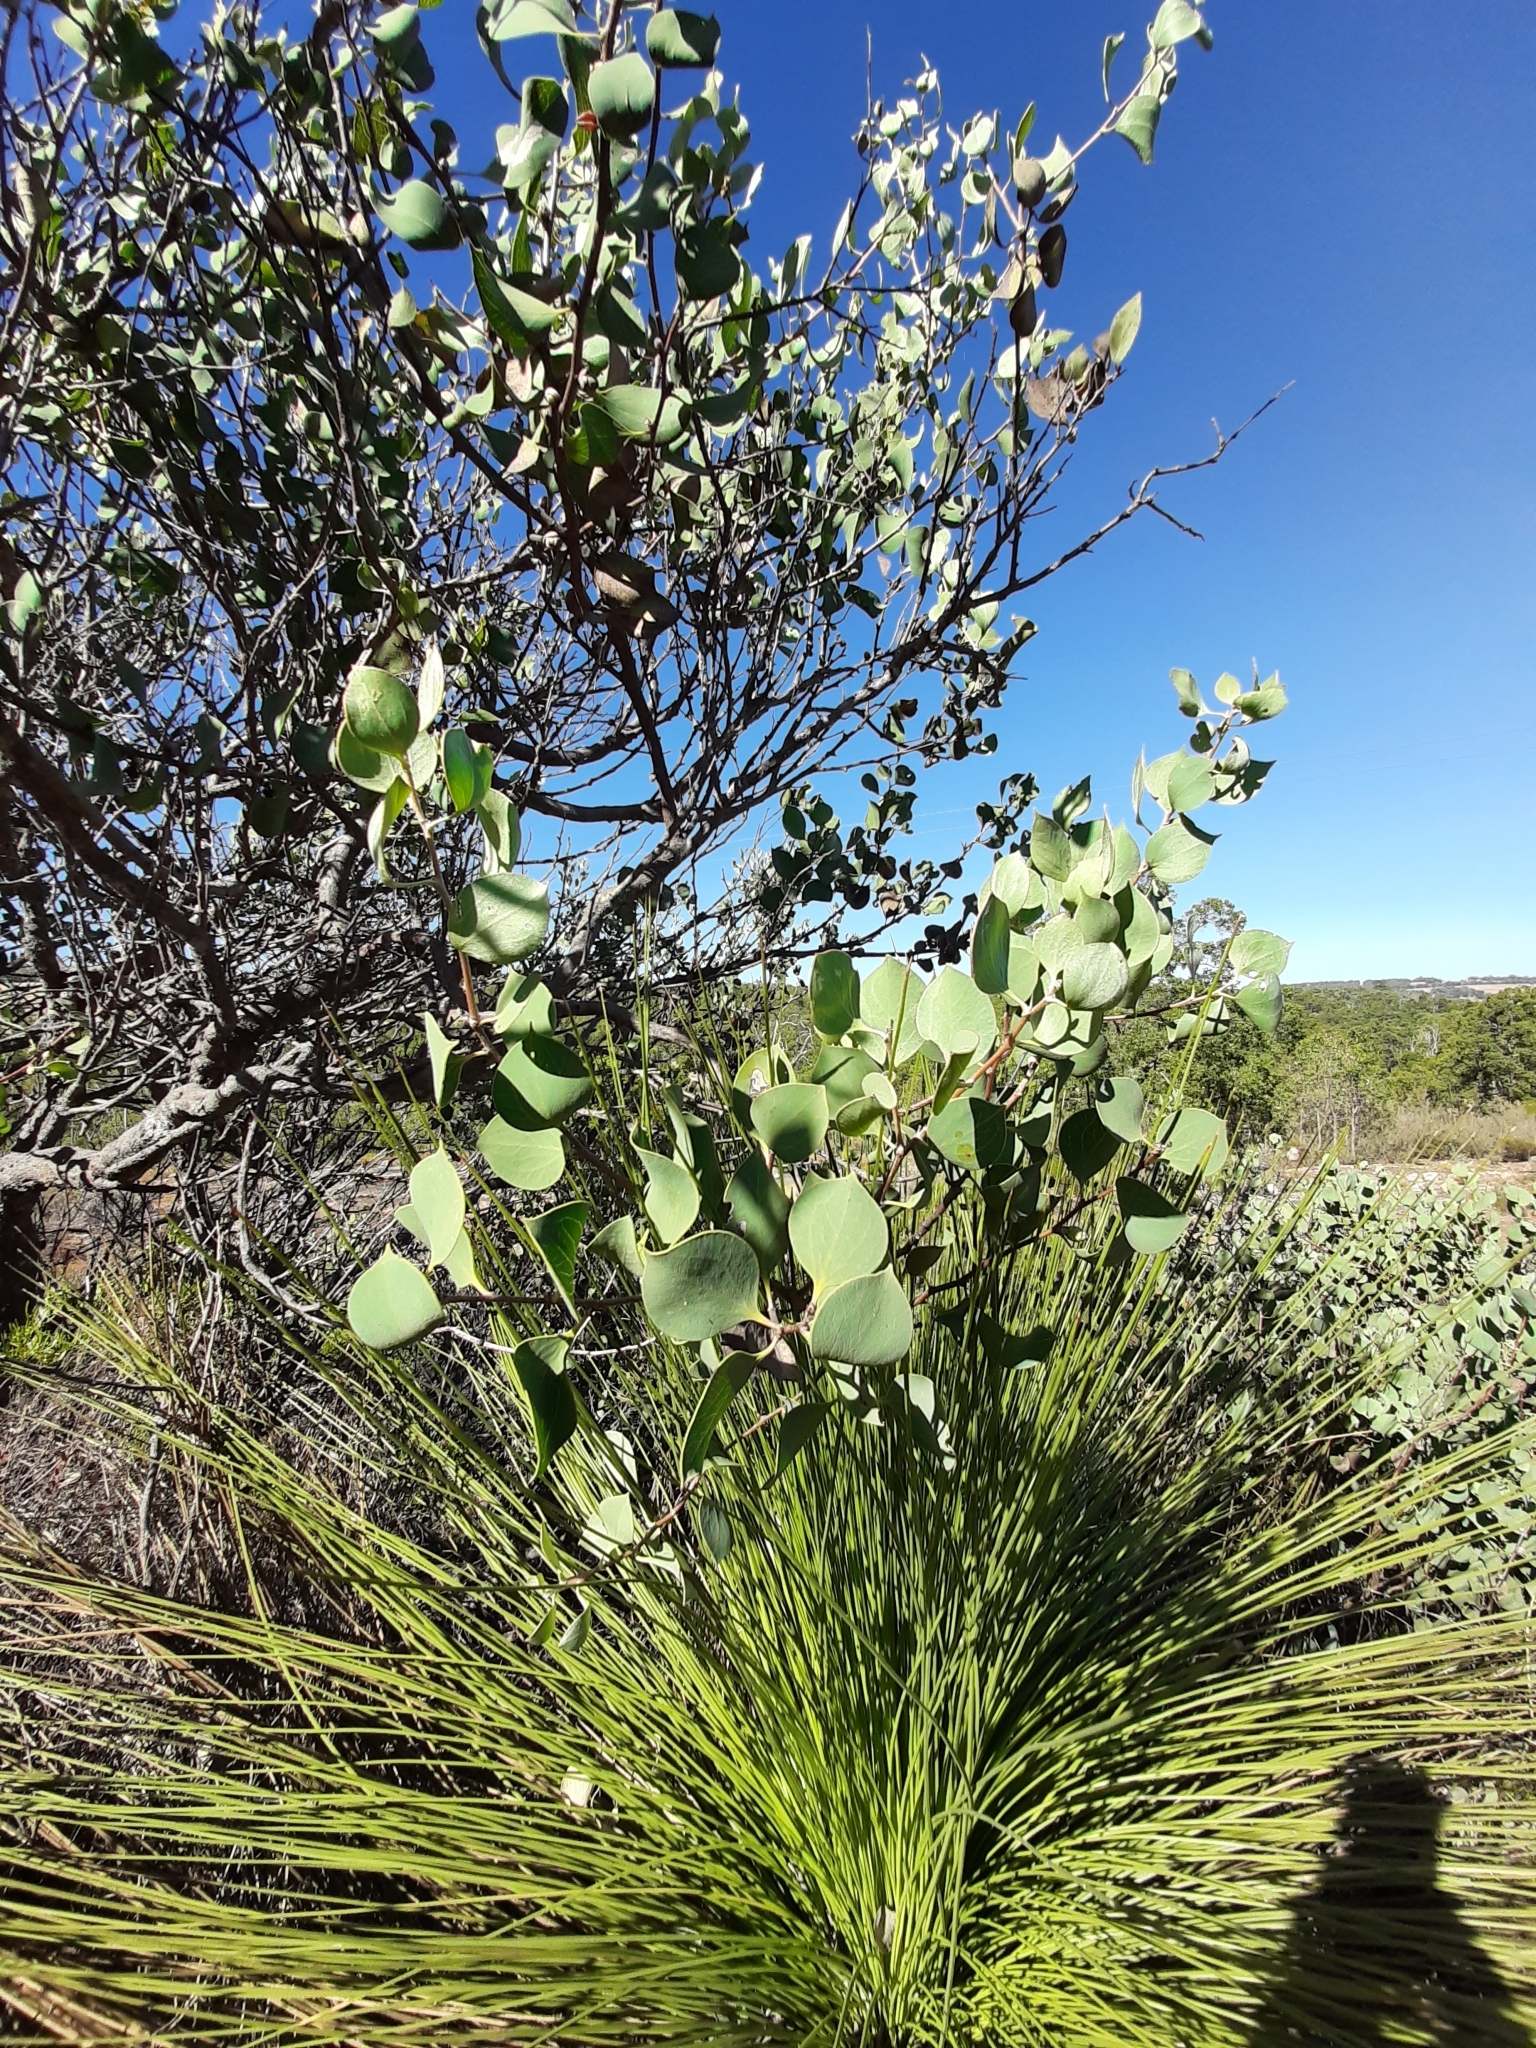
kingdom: Plantae
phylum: Tracheophyta
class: Magnoliopsida
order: Proteales
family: Proteaceae
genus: Hakea
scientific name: Hakea petiolaris
